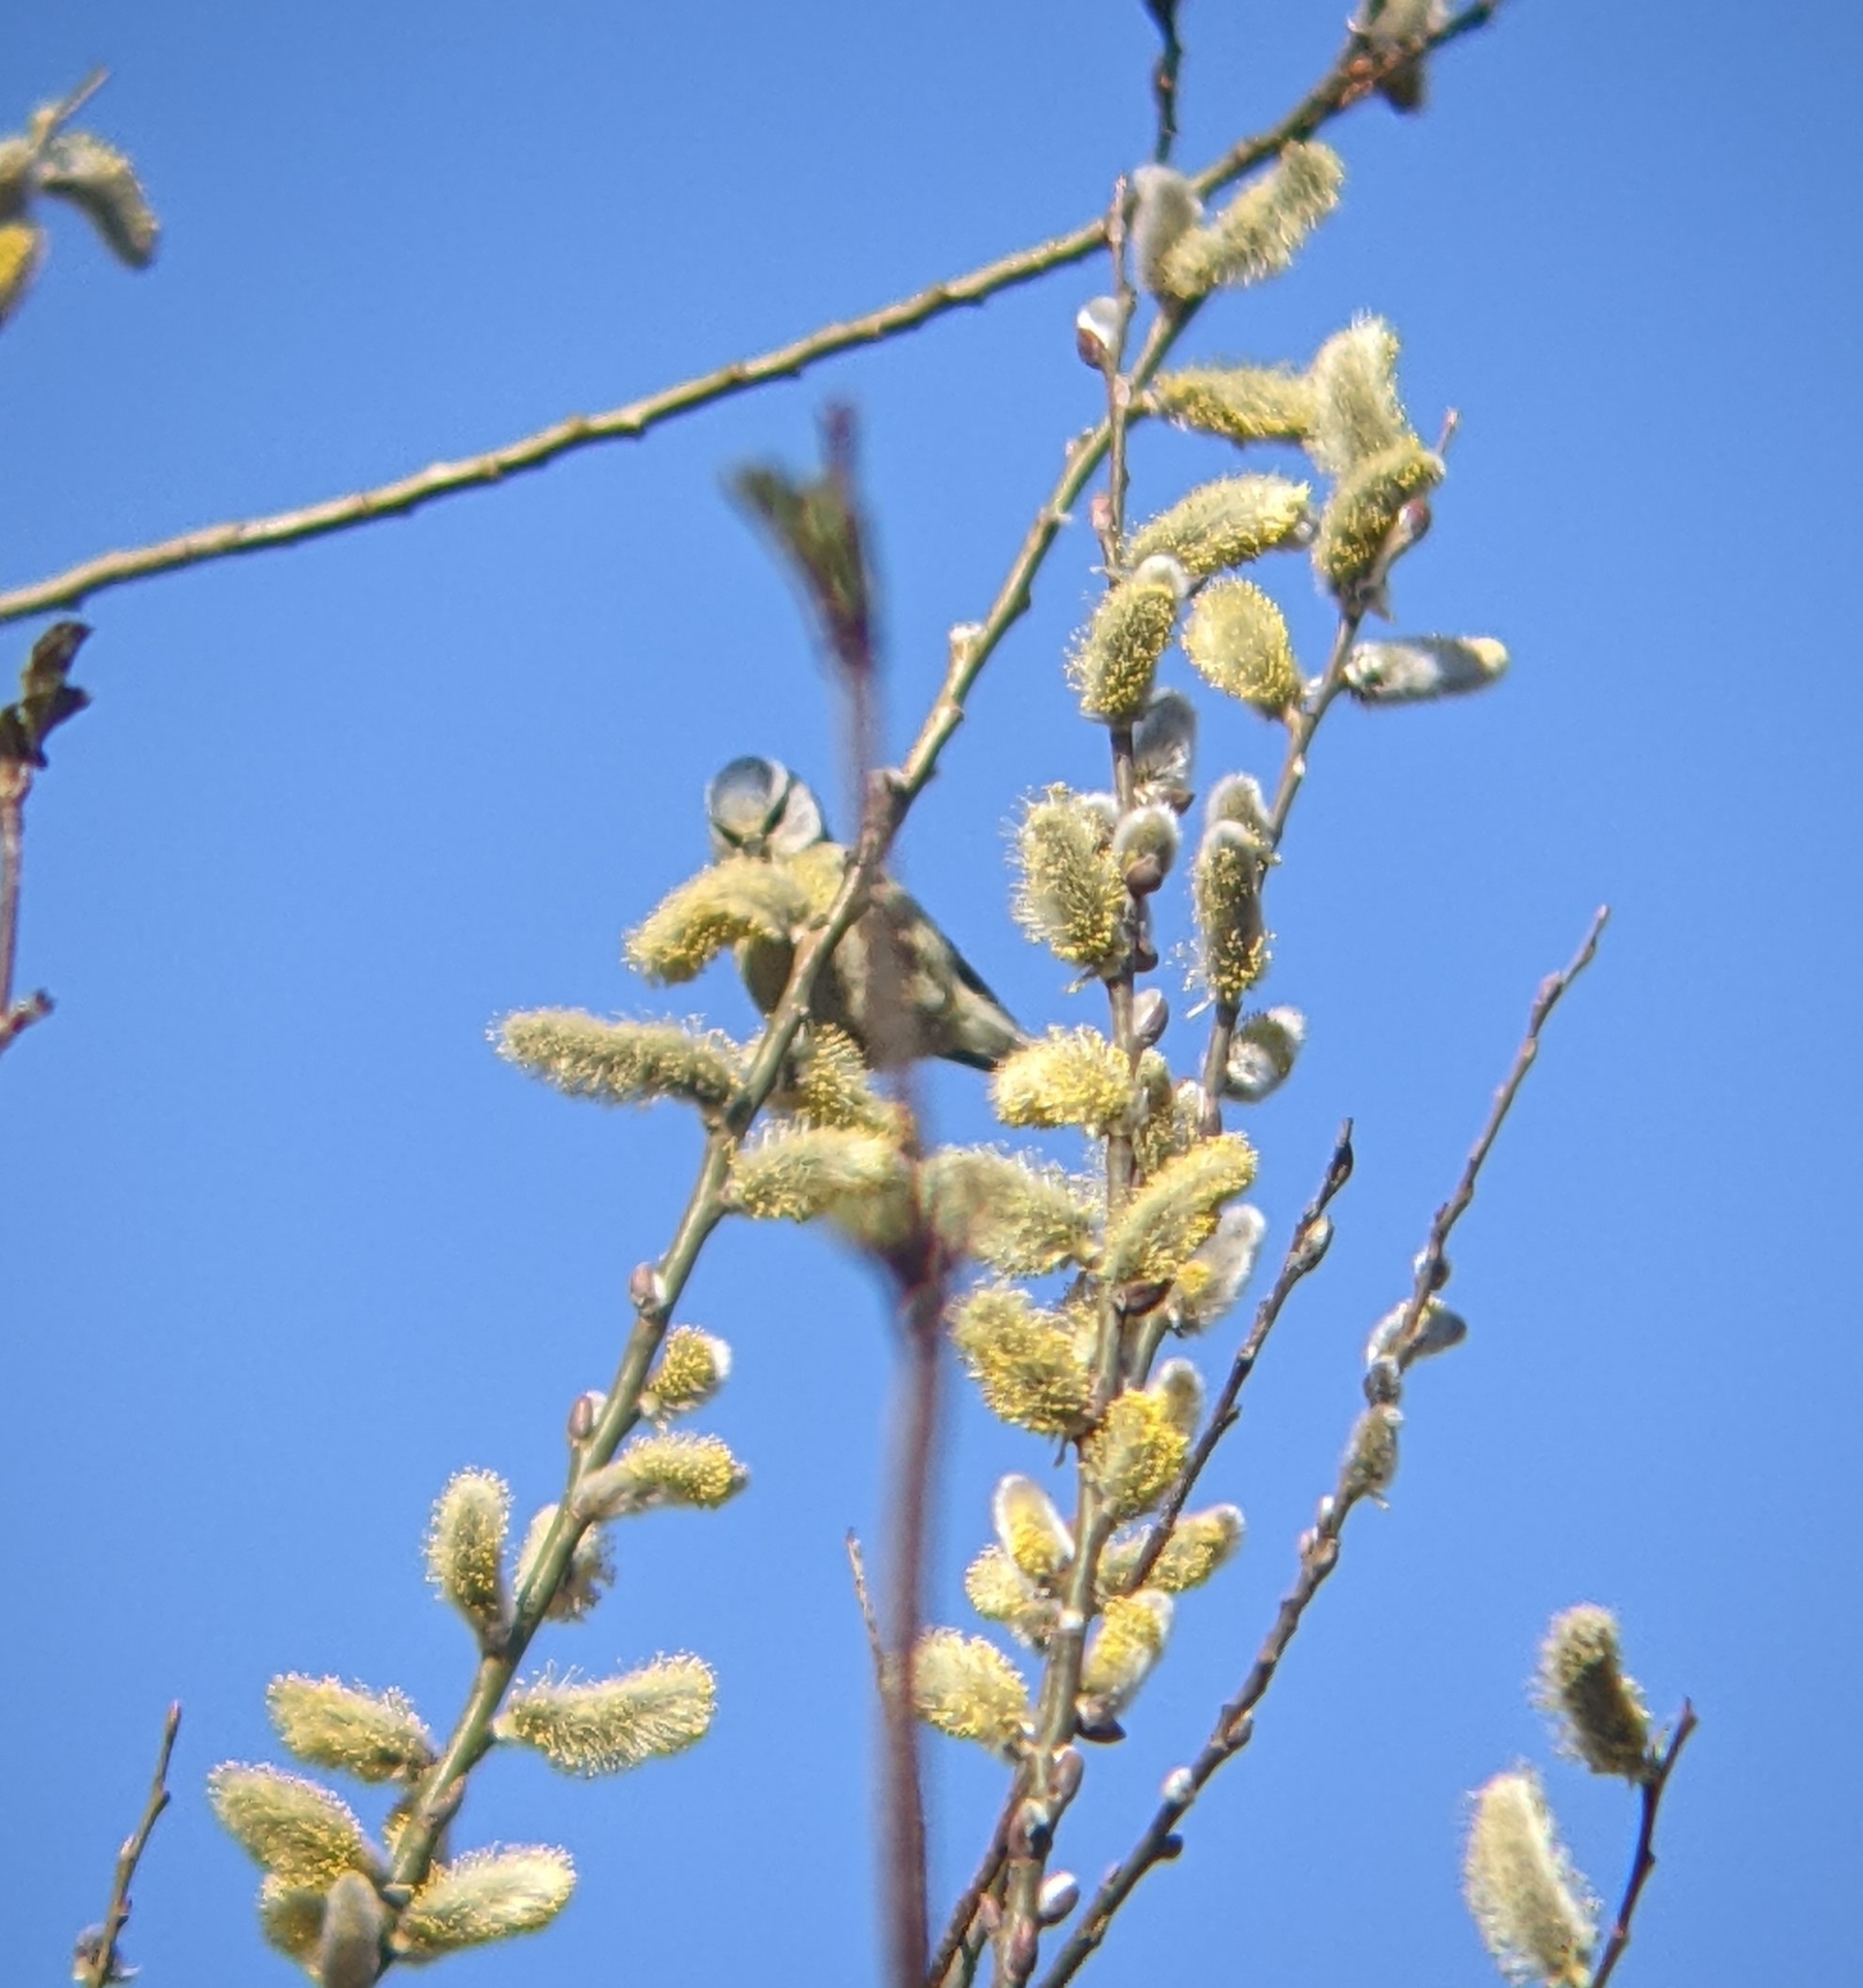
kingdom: Animalia
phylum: Chordata
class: Aves
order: Passeriformes
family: Paridae
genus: Cyanistes
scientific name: Cyanistes caeruleus
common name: Eurasian blue tit
